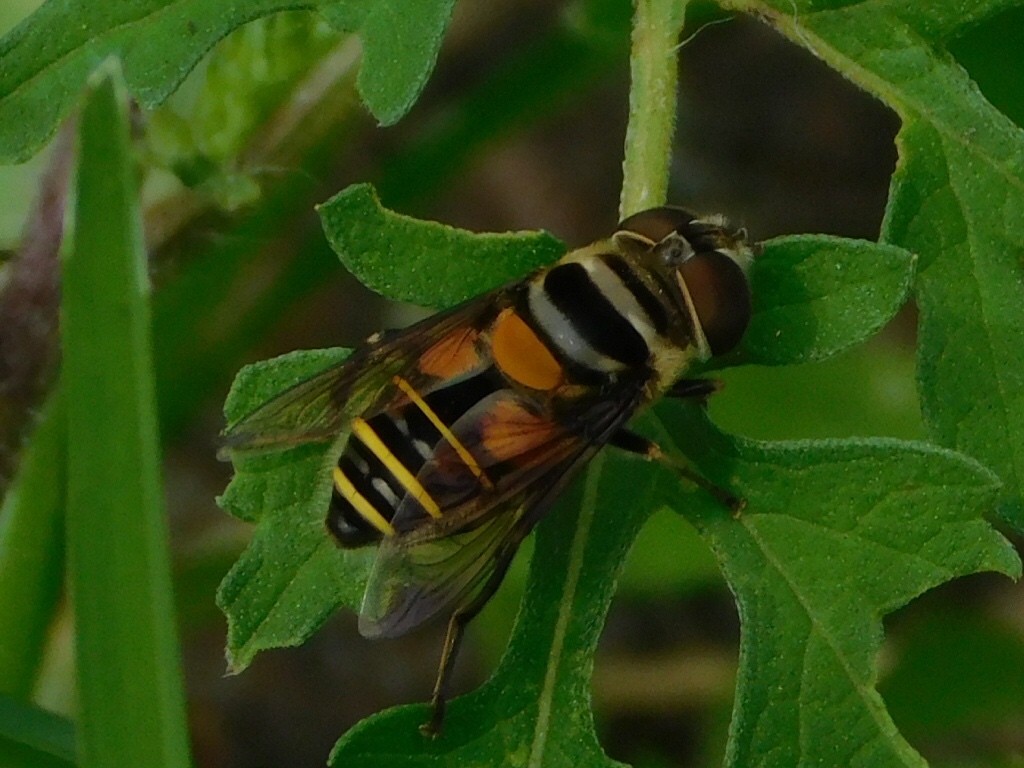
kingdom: Animalia
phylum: Arthropoda
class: Insecta
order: Diptera
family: Syrphidae
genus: Palpada
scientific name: Palpada agrorum
